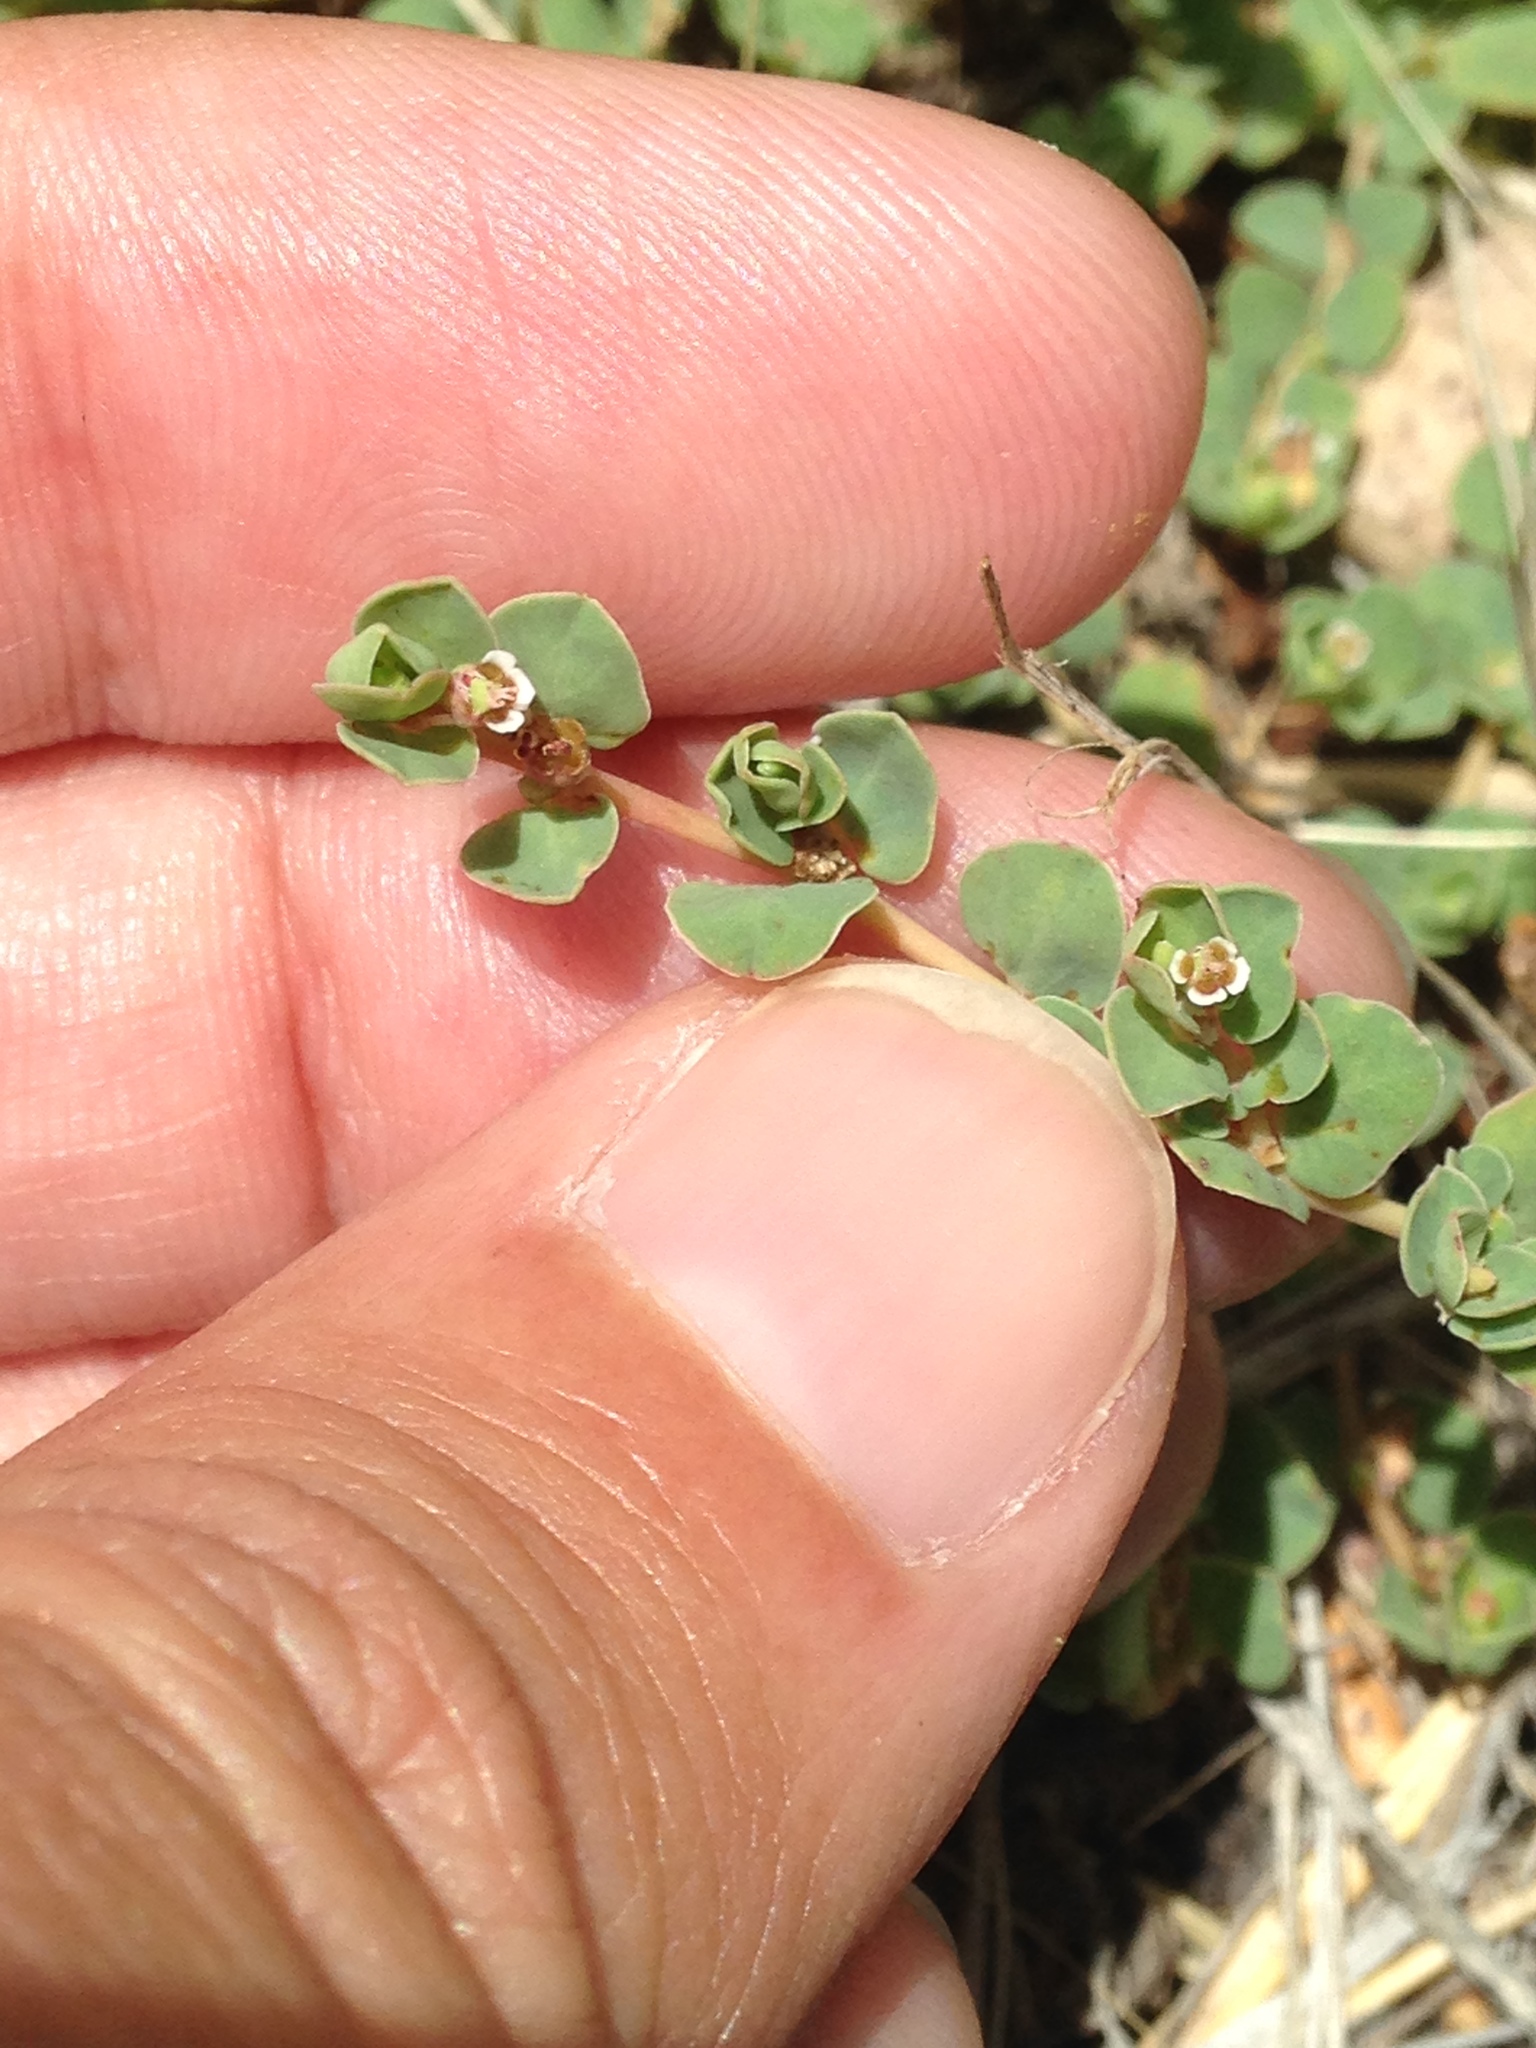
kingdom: Plantae
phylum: Tracheophyta
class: Magnoliopsida
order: Malpighiales
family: Euphorbiaceae
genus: Euphorbia
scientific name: Euphorbia albomarginata
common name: Whitemargin sandmat
